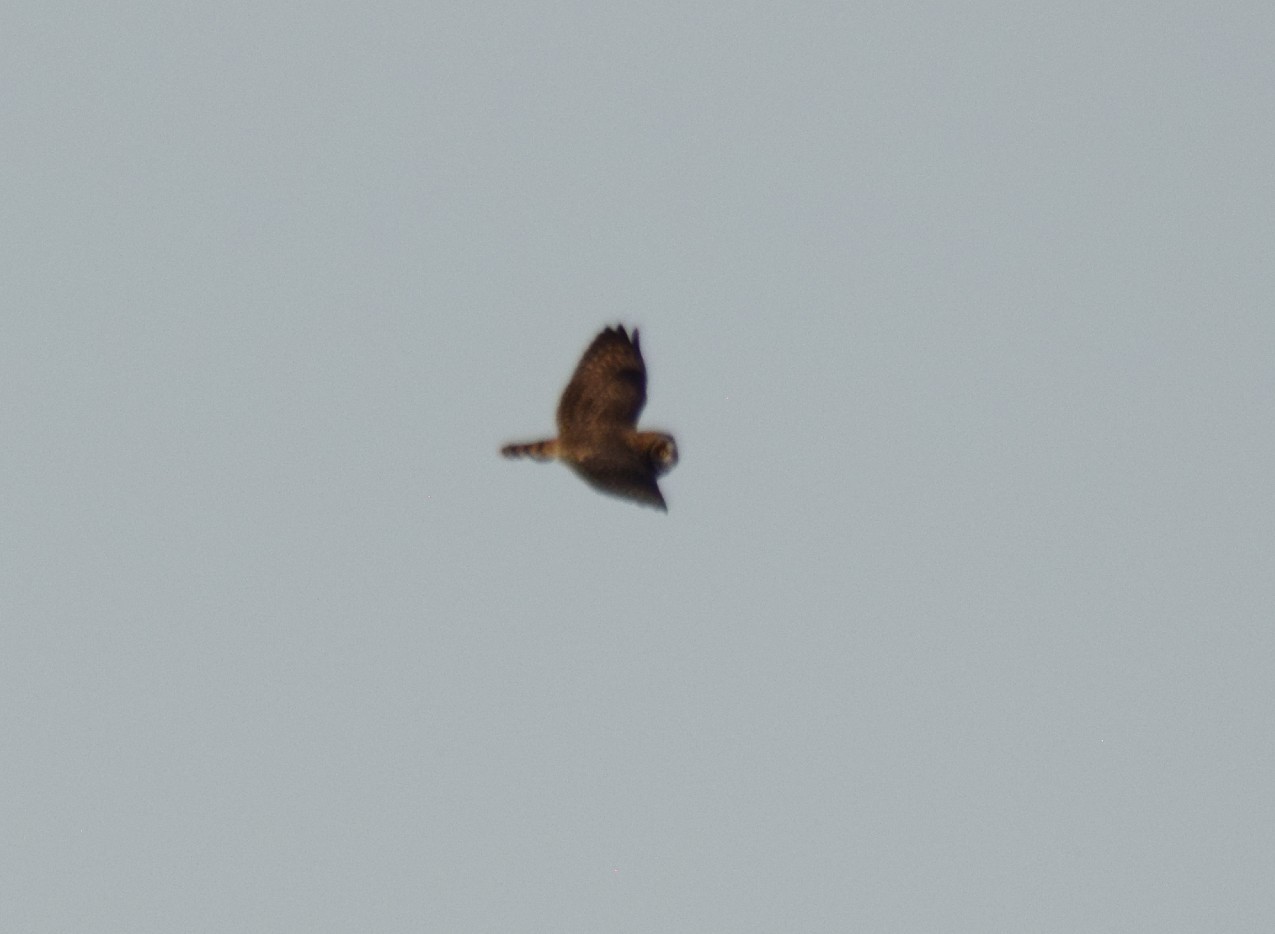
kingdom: Animalia
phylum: Chordata
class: Aves
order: Strigiformes
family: Strigidae
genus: Asio
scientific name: Asio flammeus
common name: Short-eared owl
